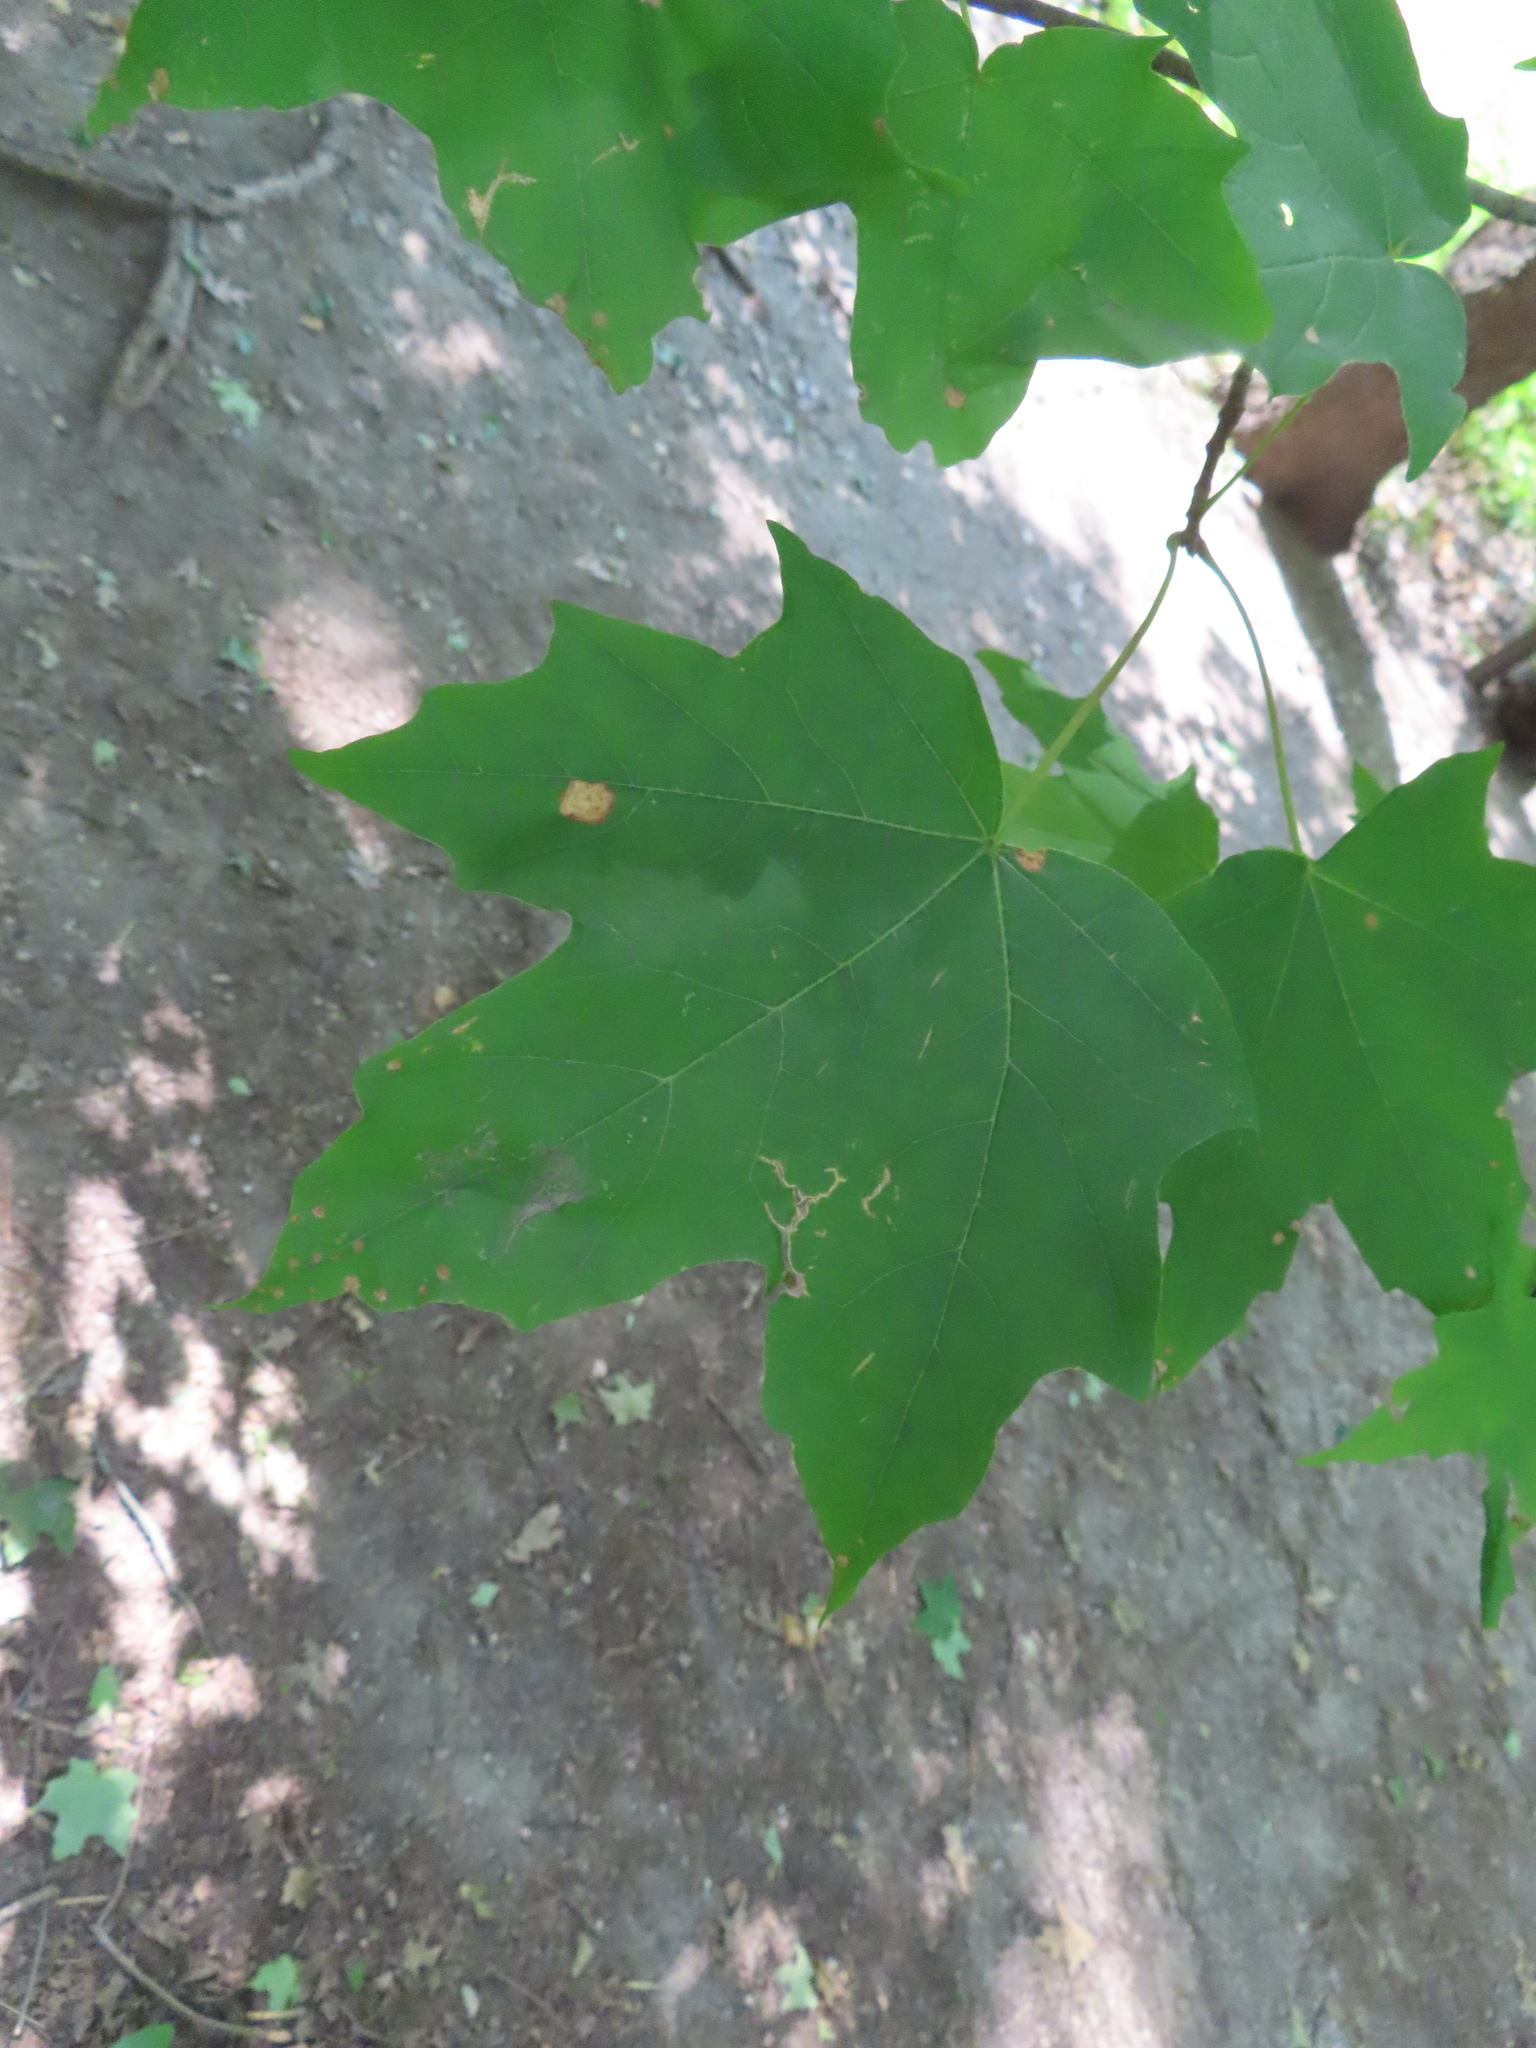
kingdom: Plantae
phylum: Tracheophyta
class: Magnoliopsida
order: Sapindales
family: Sapindaceae
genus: Acer
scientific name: Acer saccharum
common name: Sugar maple
